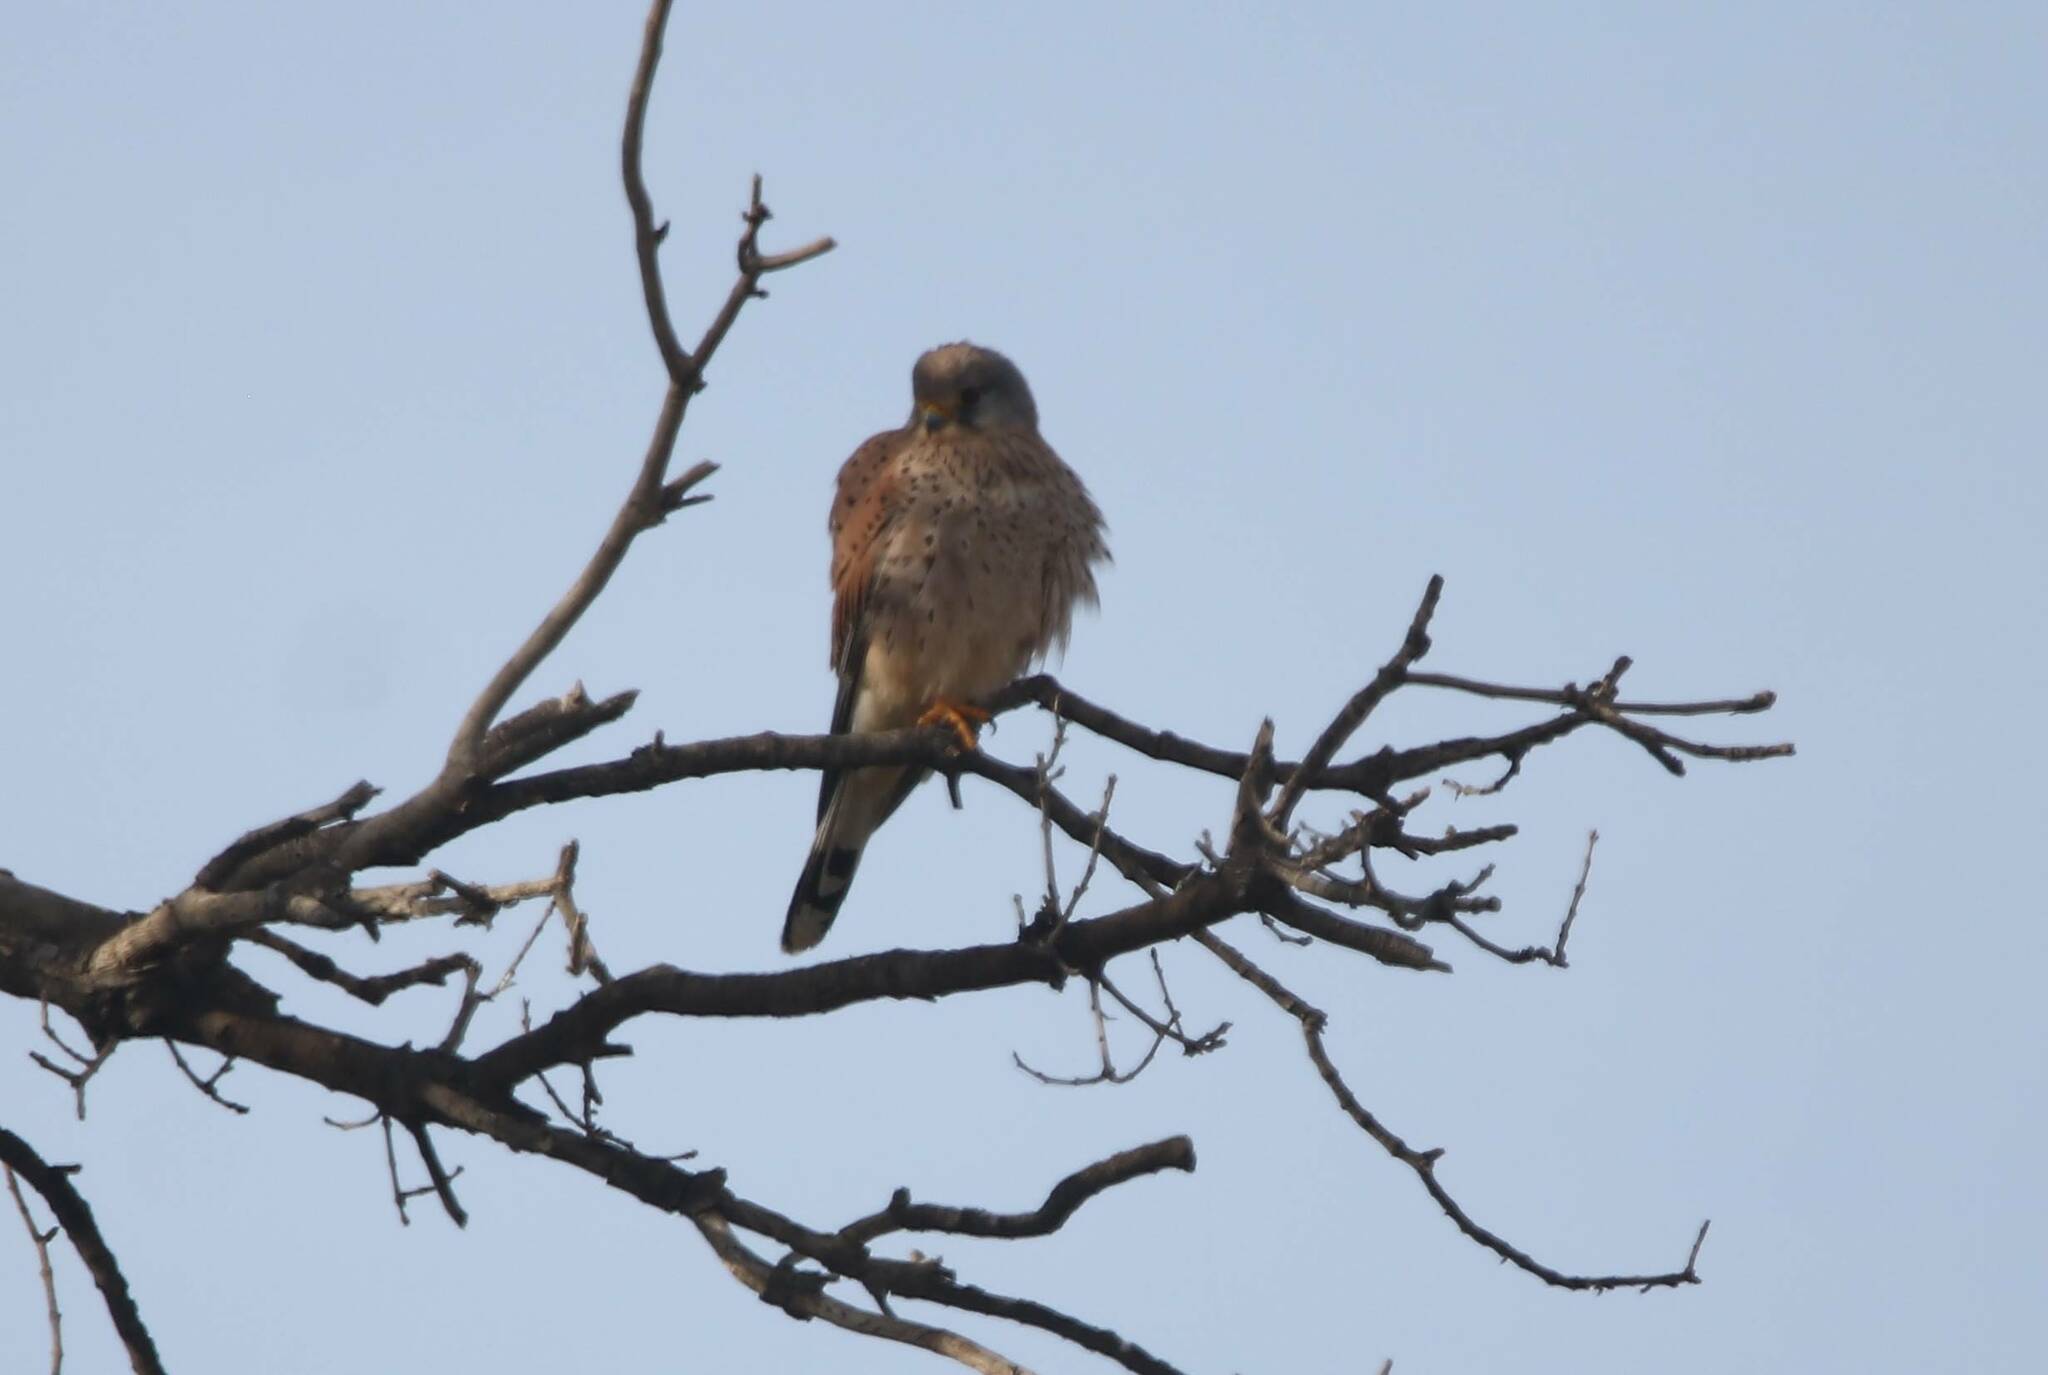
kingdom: Animalia
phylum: Chordata
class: Aves
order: Falconiformes
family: Falconidae
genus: Falco
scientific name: Falco tinnunculus
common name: Common kestrel
